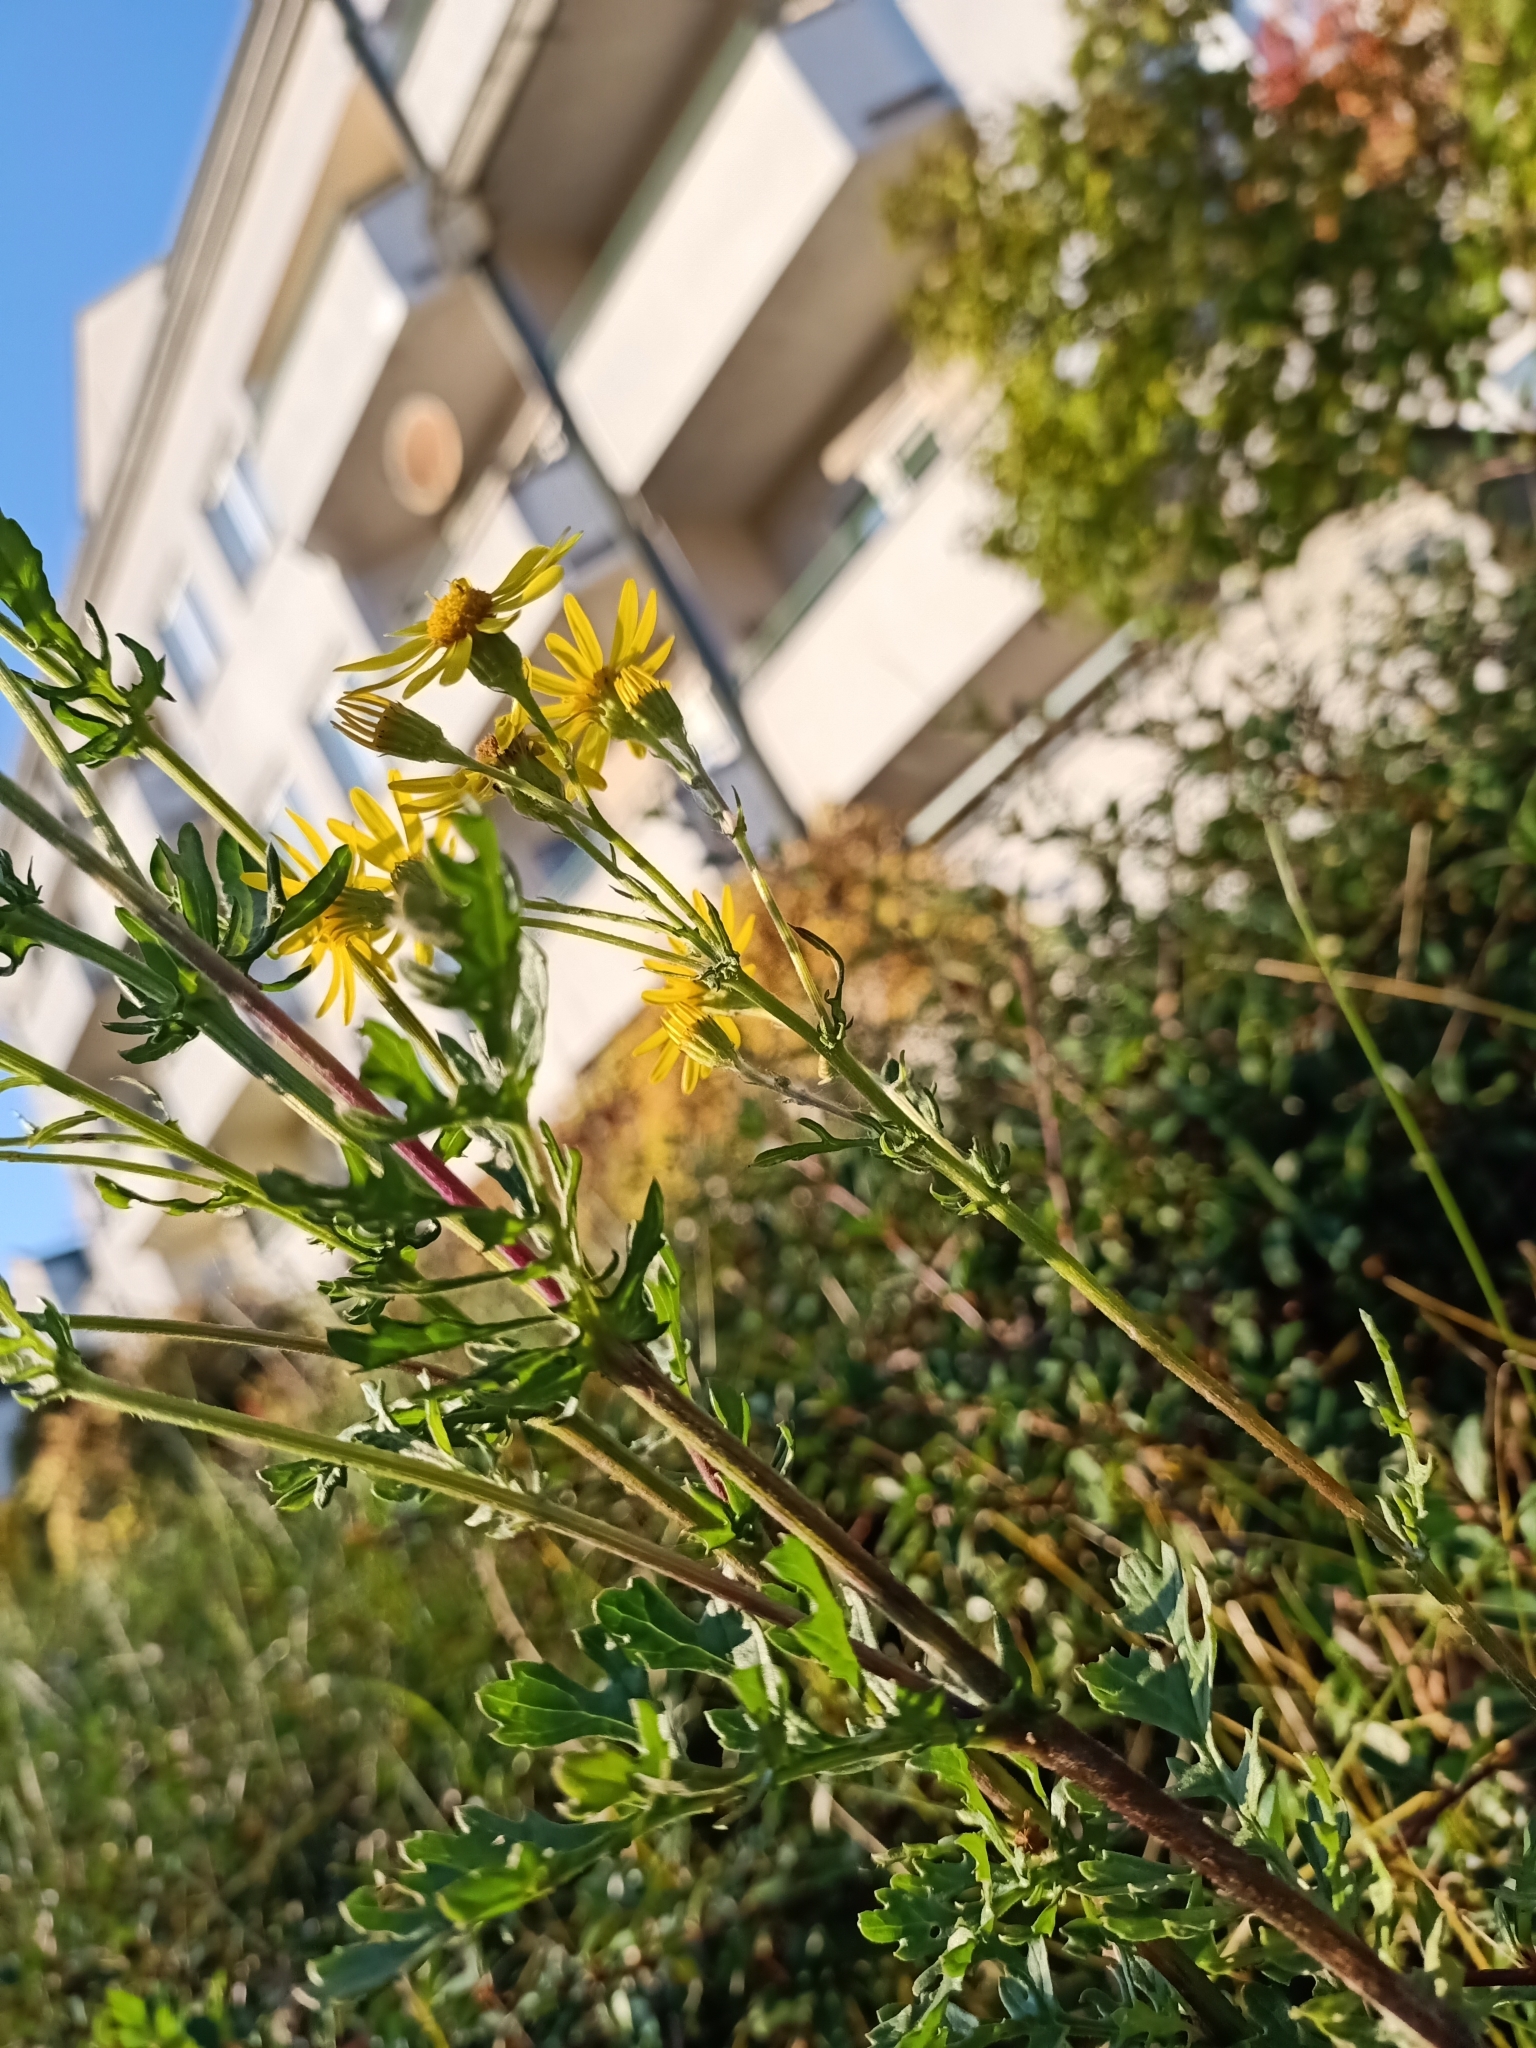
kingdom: Plantae
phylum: Tracheophyta
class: Magnoliopsida
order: Asterales
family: Asteraceae
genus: Jacobaea
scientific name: Jacobaea vulgaris
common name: Stinking willie
